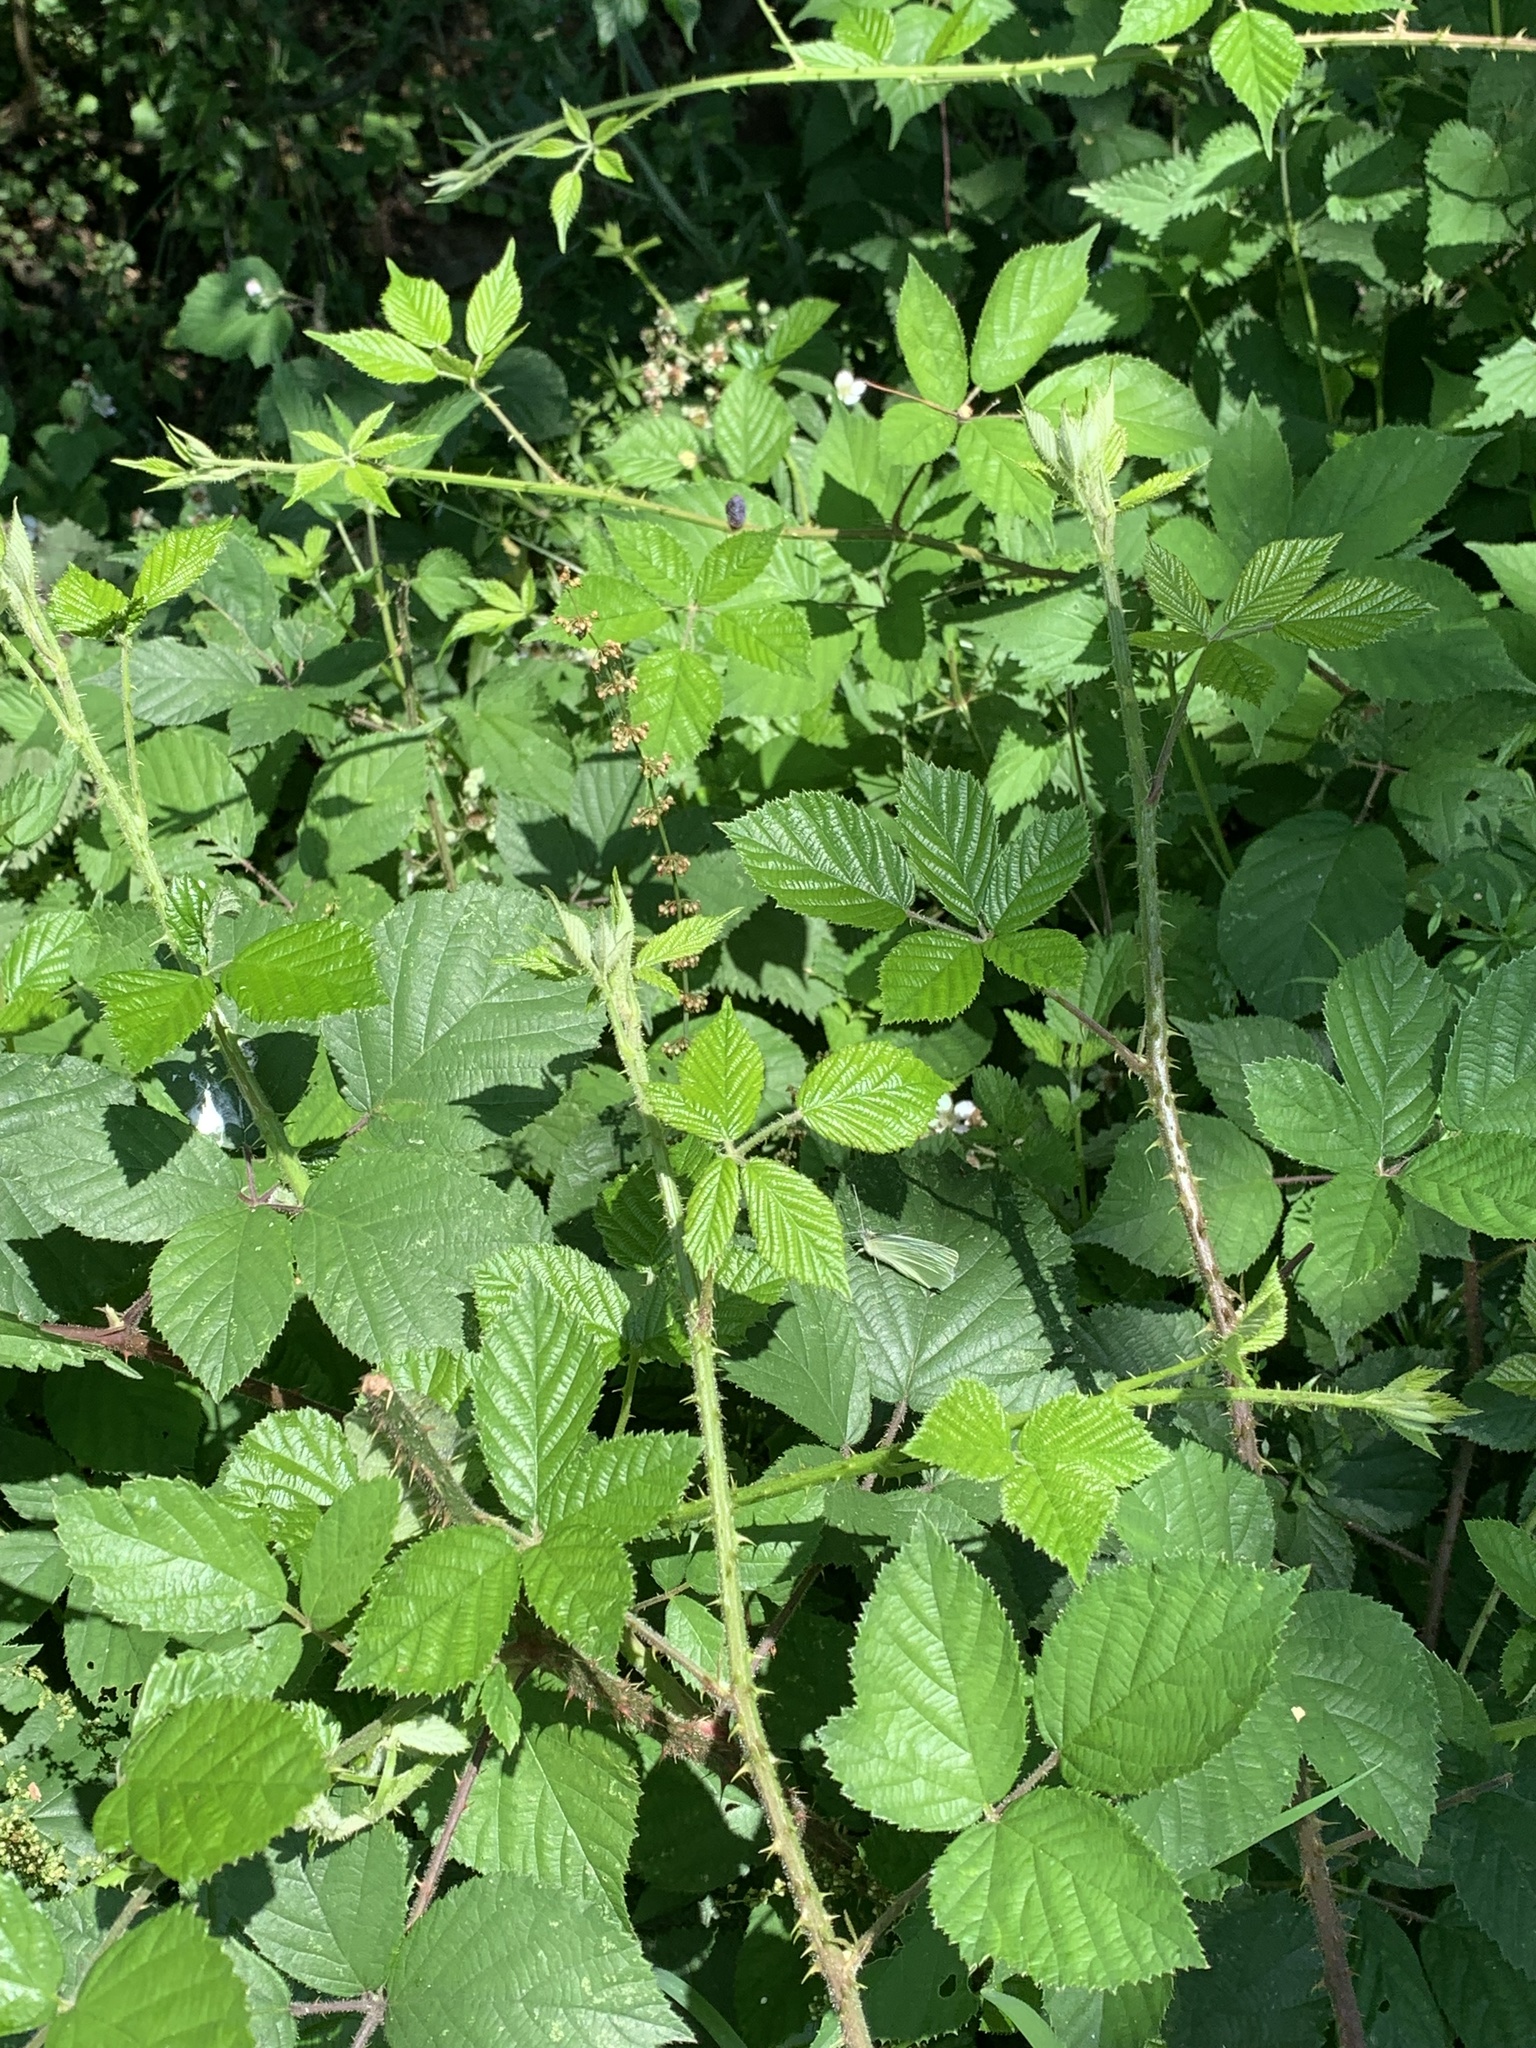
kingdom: Animalia
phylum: Arthropoda
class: Insecta
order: Lepidoptera
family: Pieridae
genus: Pieris
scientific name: Pieris rapae
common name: Small white
